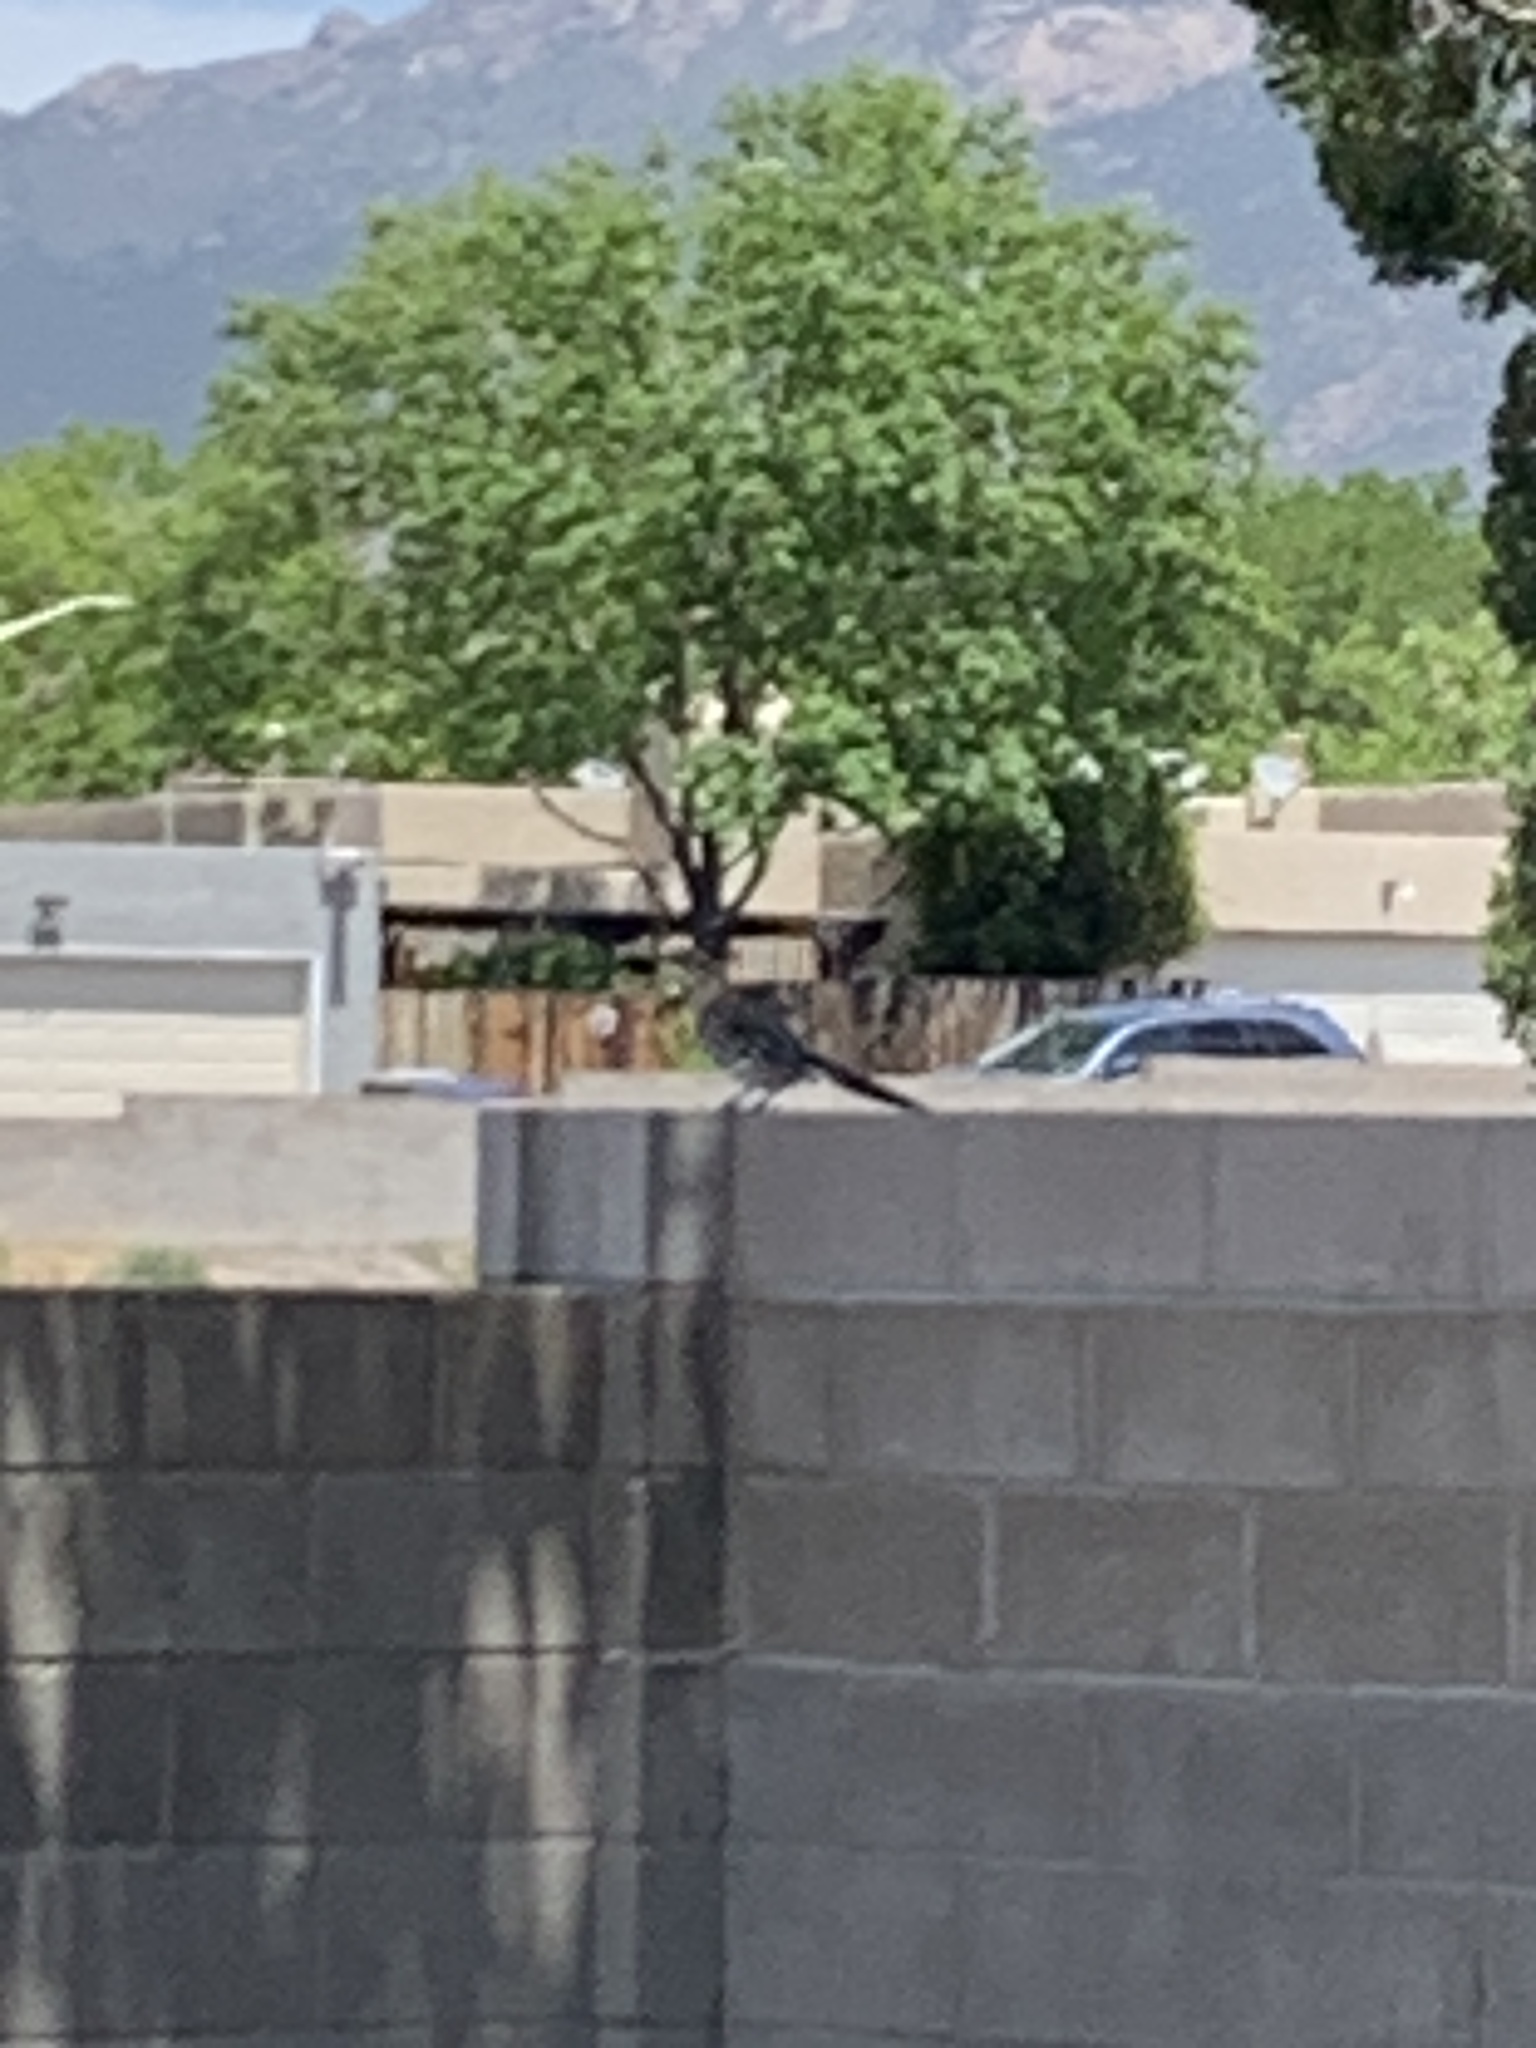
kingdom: Animalia
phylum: Chordata
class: Aves
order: Cuculiformes
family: Cuculidae
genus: Geococcyx
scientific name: Geococcyx californianus
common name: Greater roadrunner
